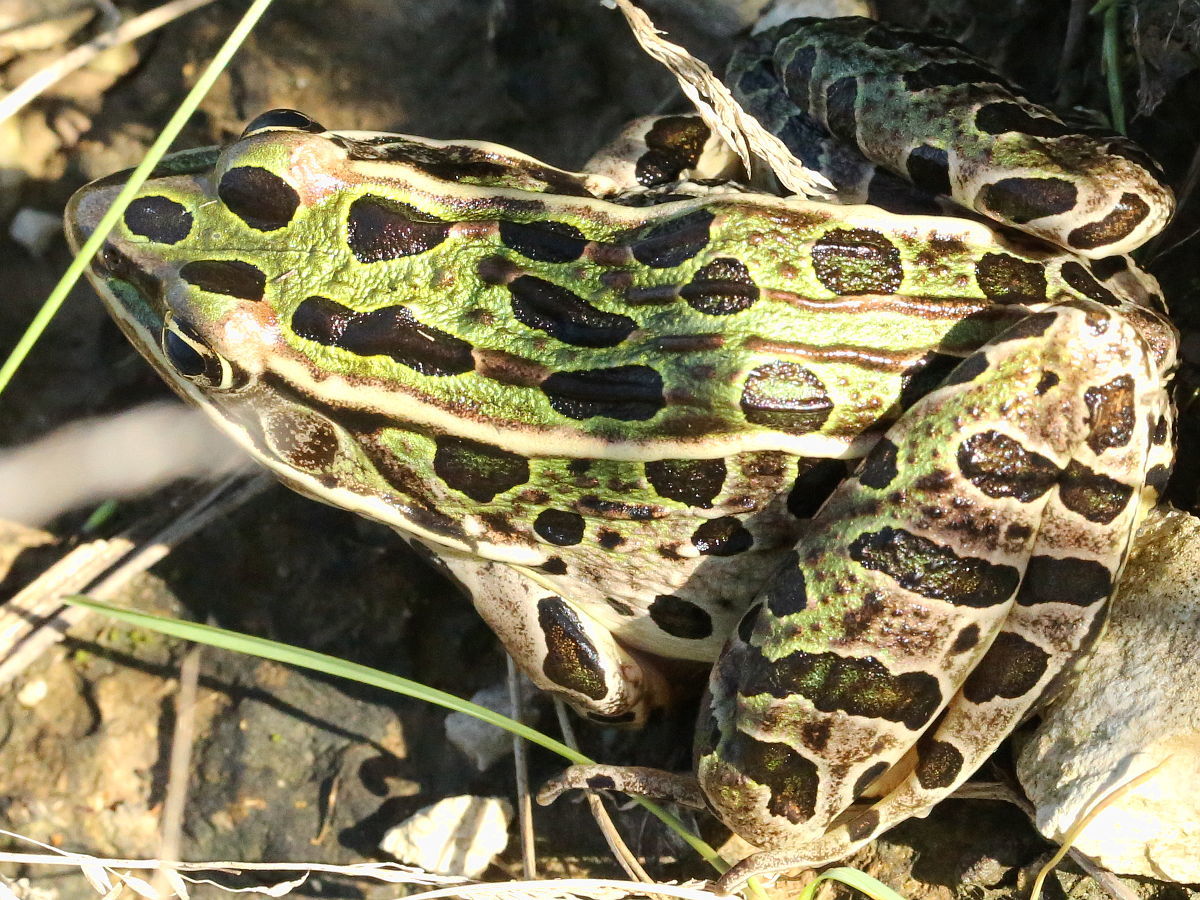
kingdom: Animalia
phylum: Chordata
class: Amphibia
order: Anura
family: Ranidae
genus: Lithobates
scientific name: Lithobates pipiens
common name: Northern leopard frog
